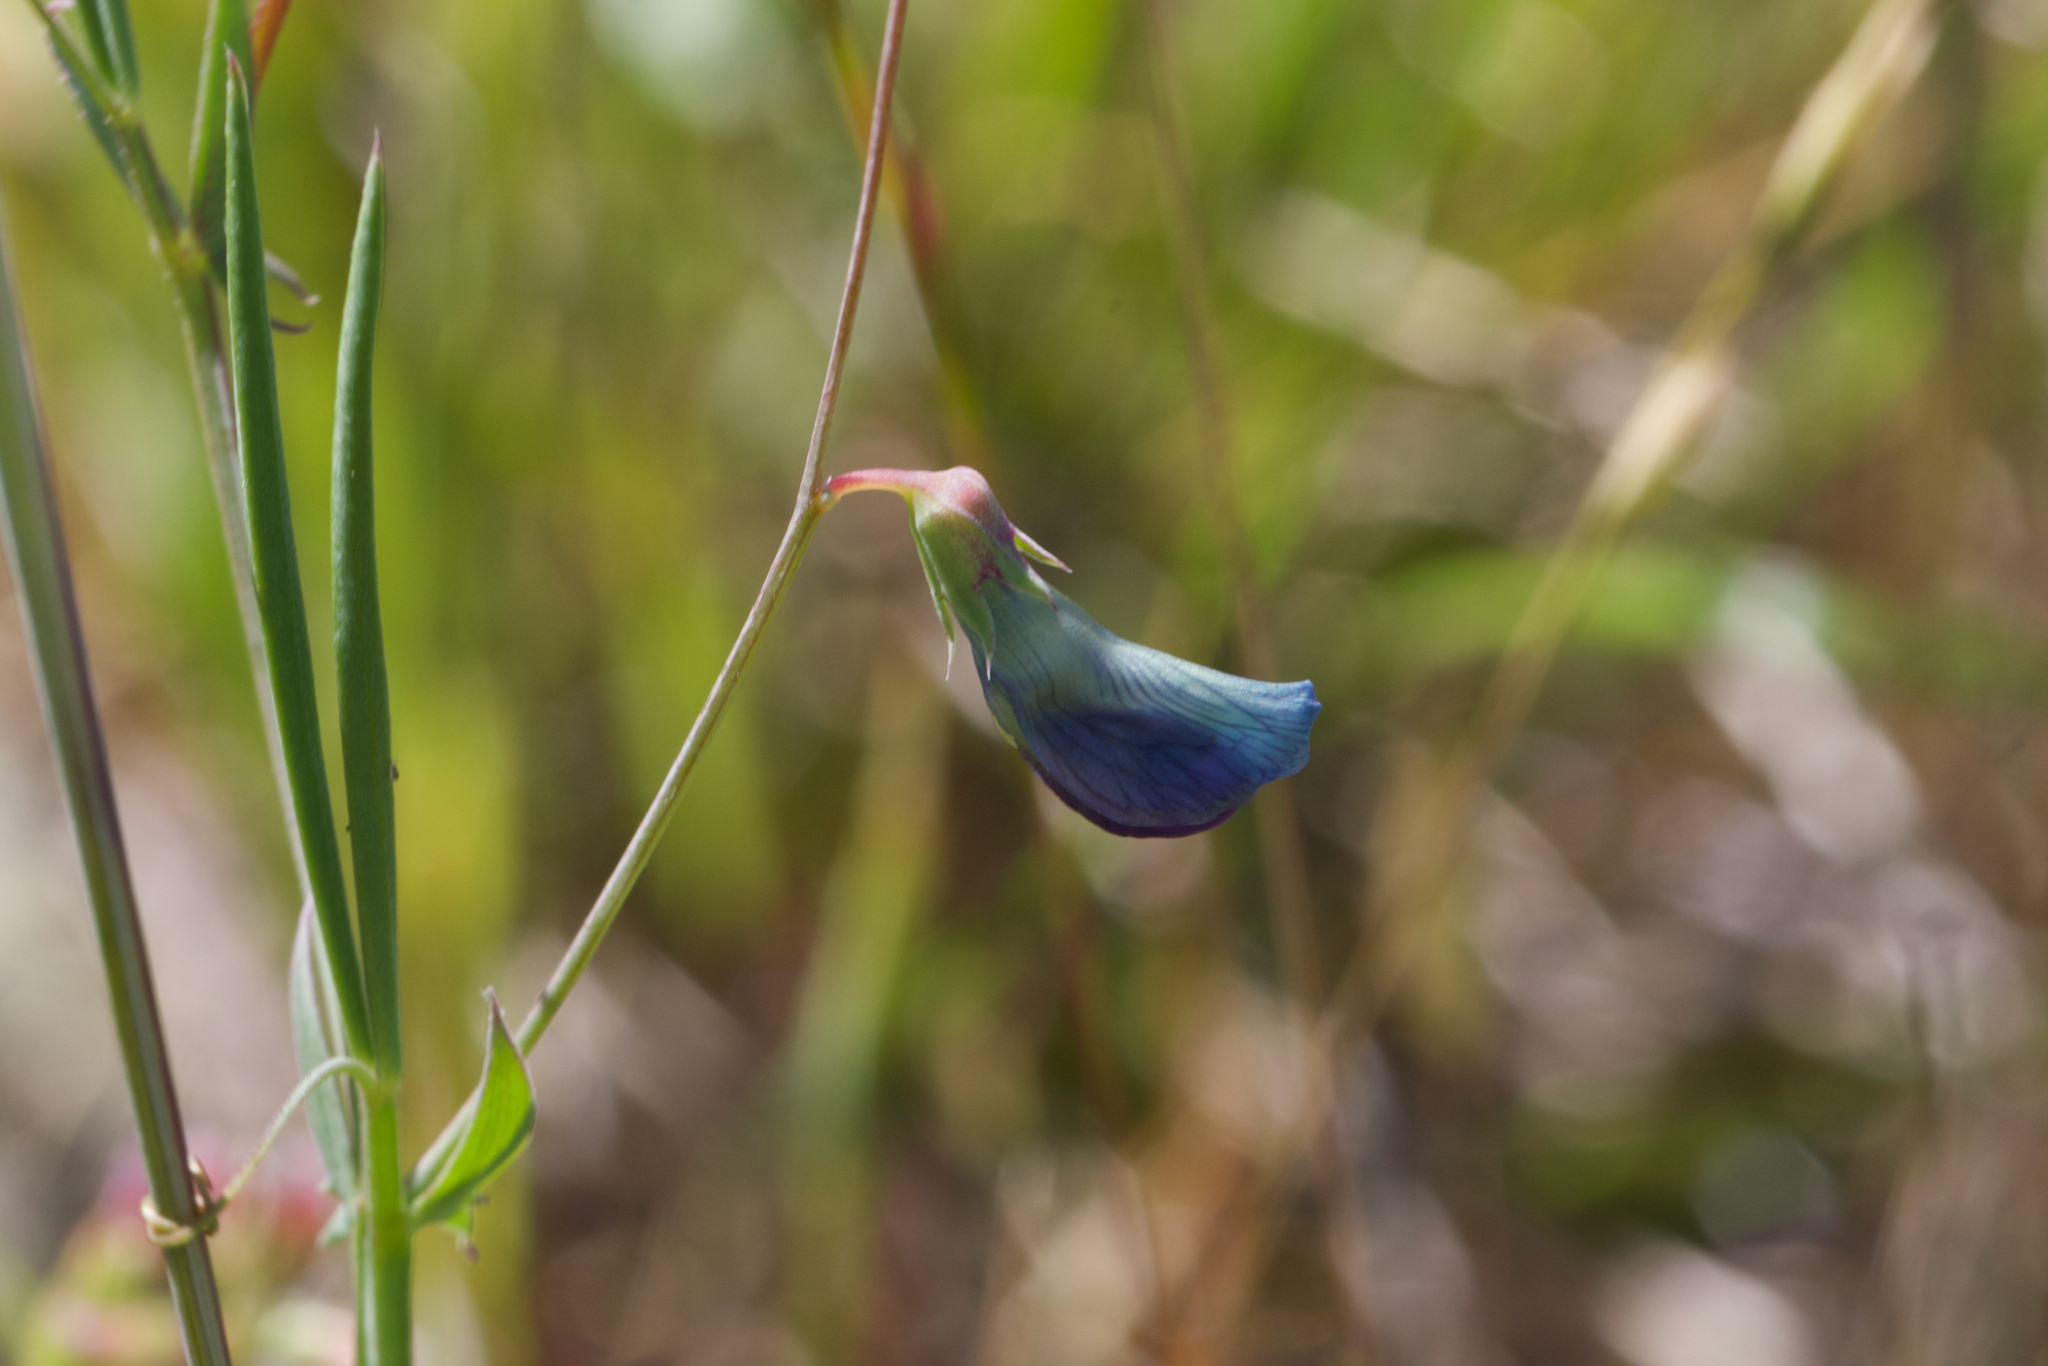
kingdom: Plantae
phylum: Tracheophyta
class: Magnoliopsida
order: Fabales
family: Fabaceae
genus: Lathyrus
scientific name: Lathyrus angulatus
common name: Angular pea
